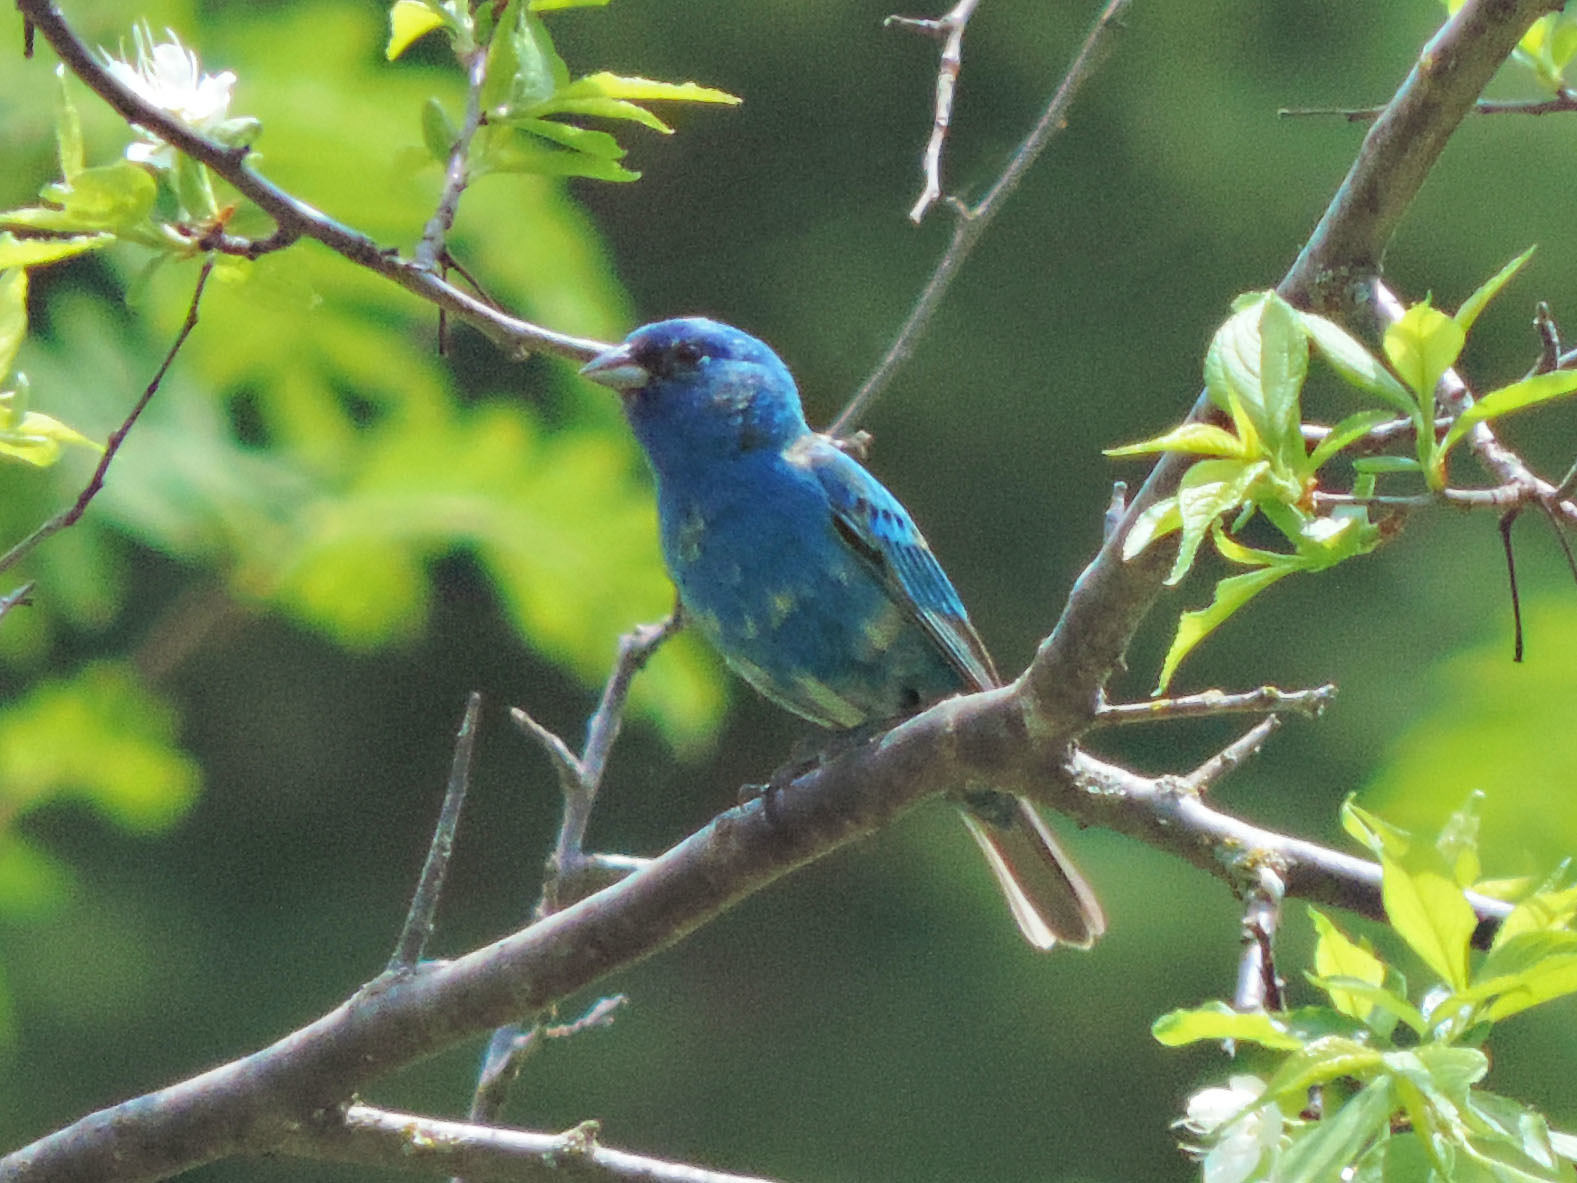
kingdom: Animalia
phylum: Chordata
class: Aves
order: Passeriformes
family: Cardinalidae
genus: Passerina
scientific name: Passerina cyanea
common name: Indigo bunting
